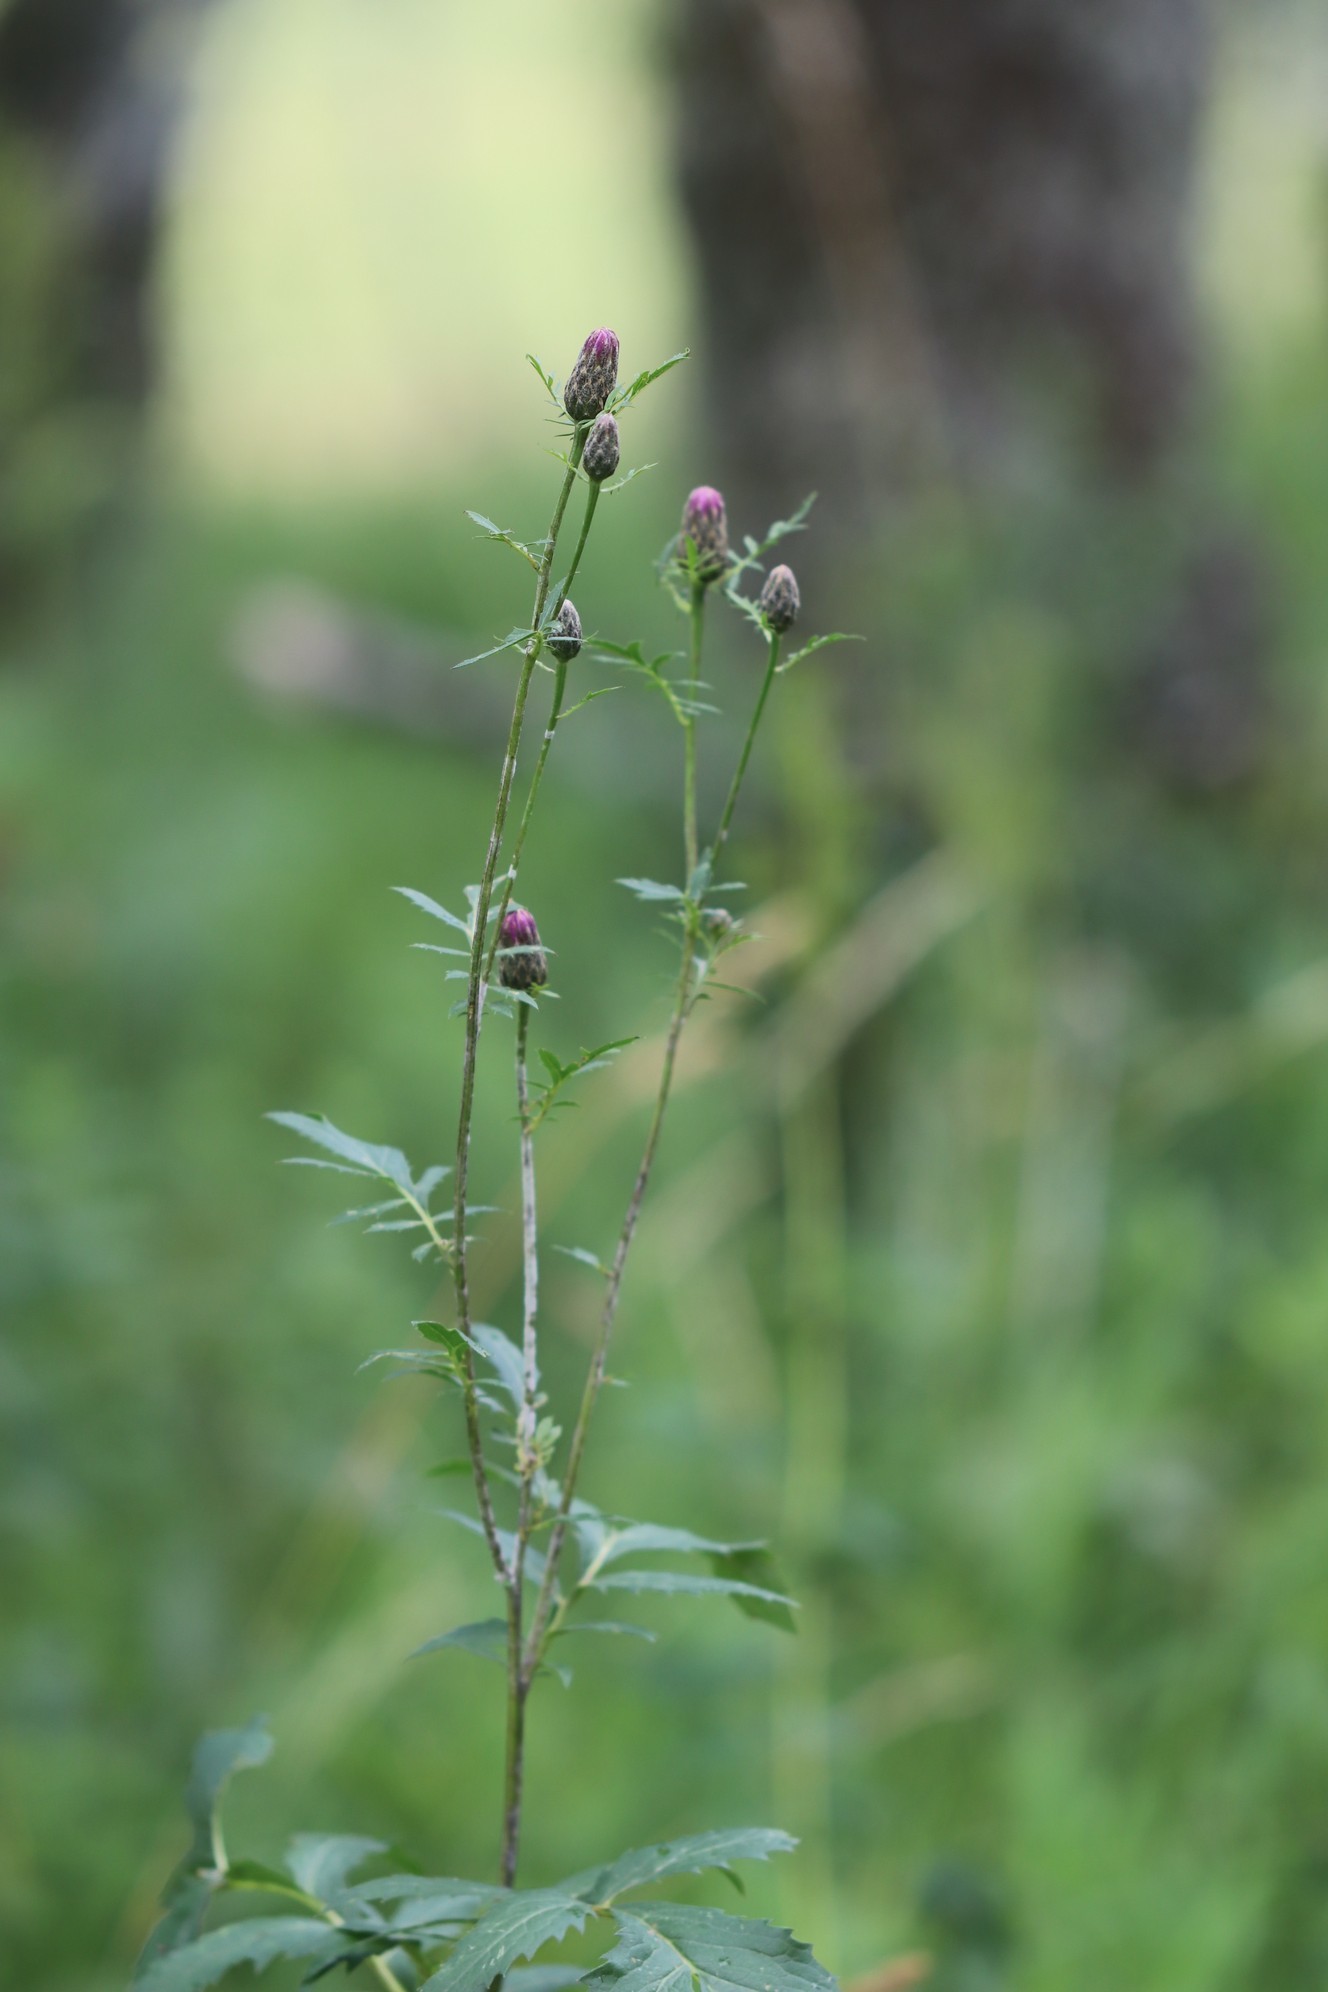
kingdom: Plantae
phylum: Tracheophyta
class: Magnoliopsida
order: Asterales
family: Asteraceae
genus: Serratula
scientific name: Serratula coronata
